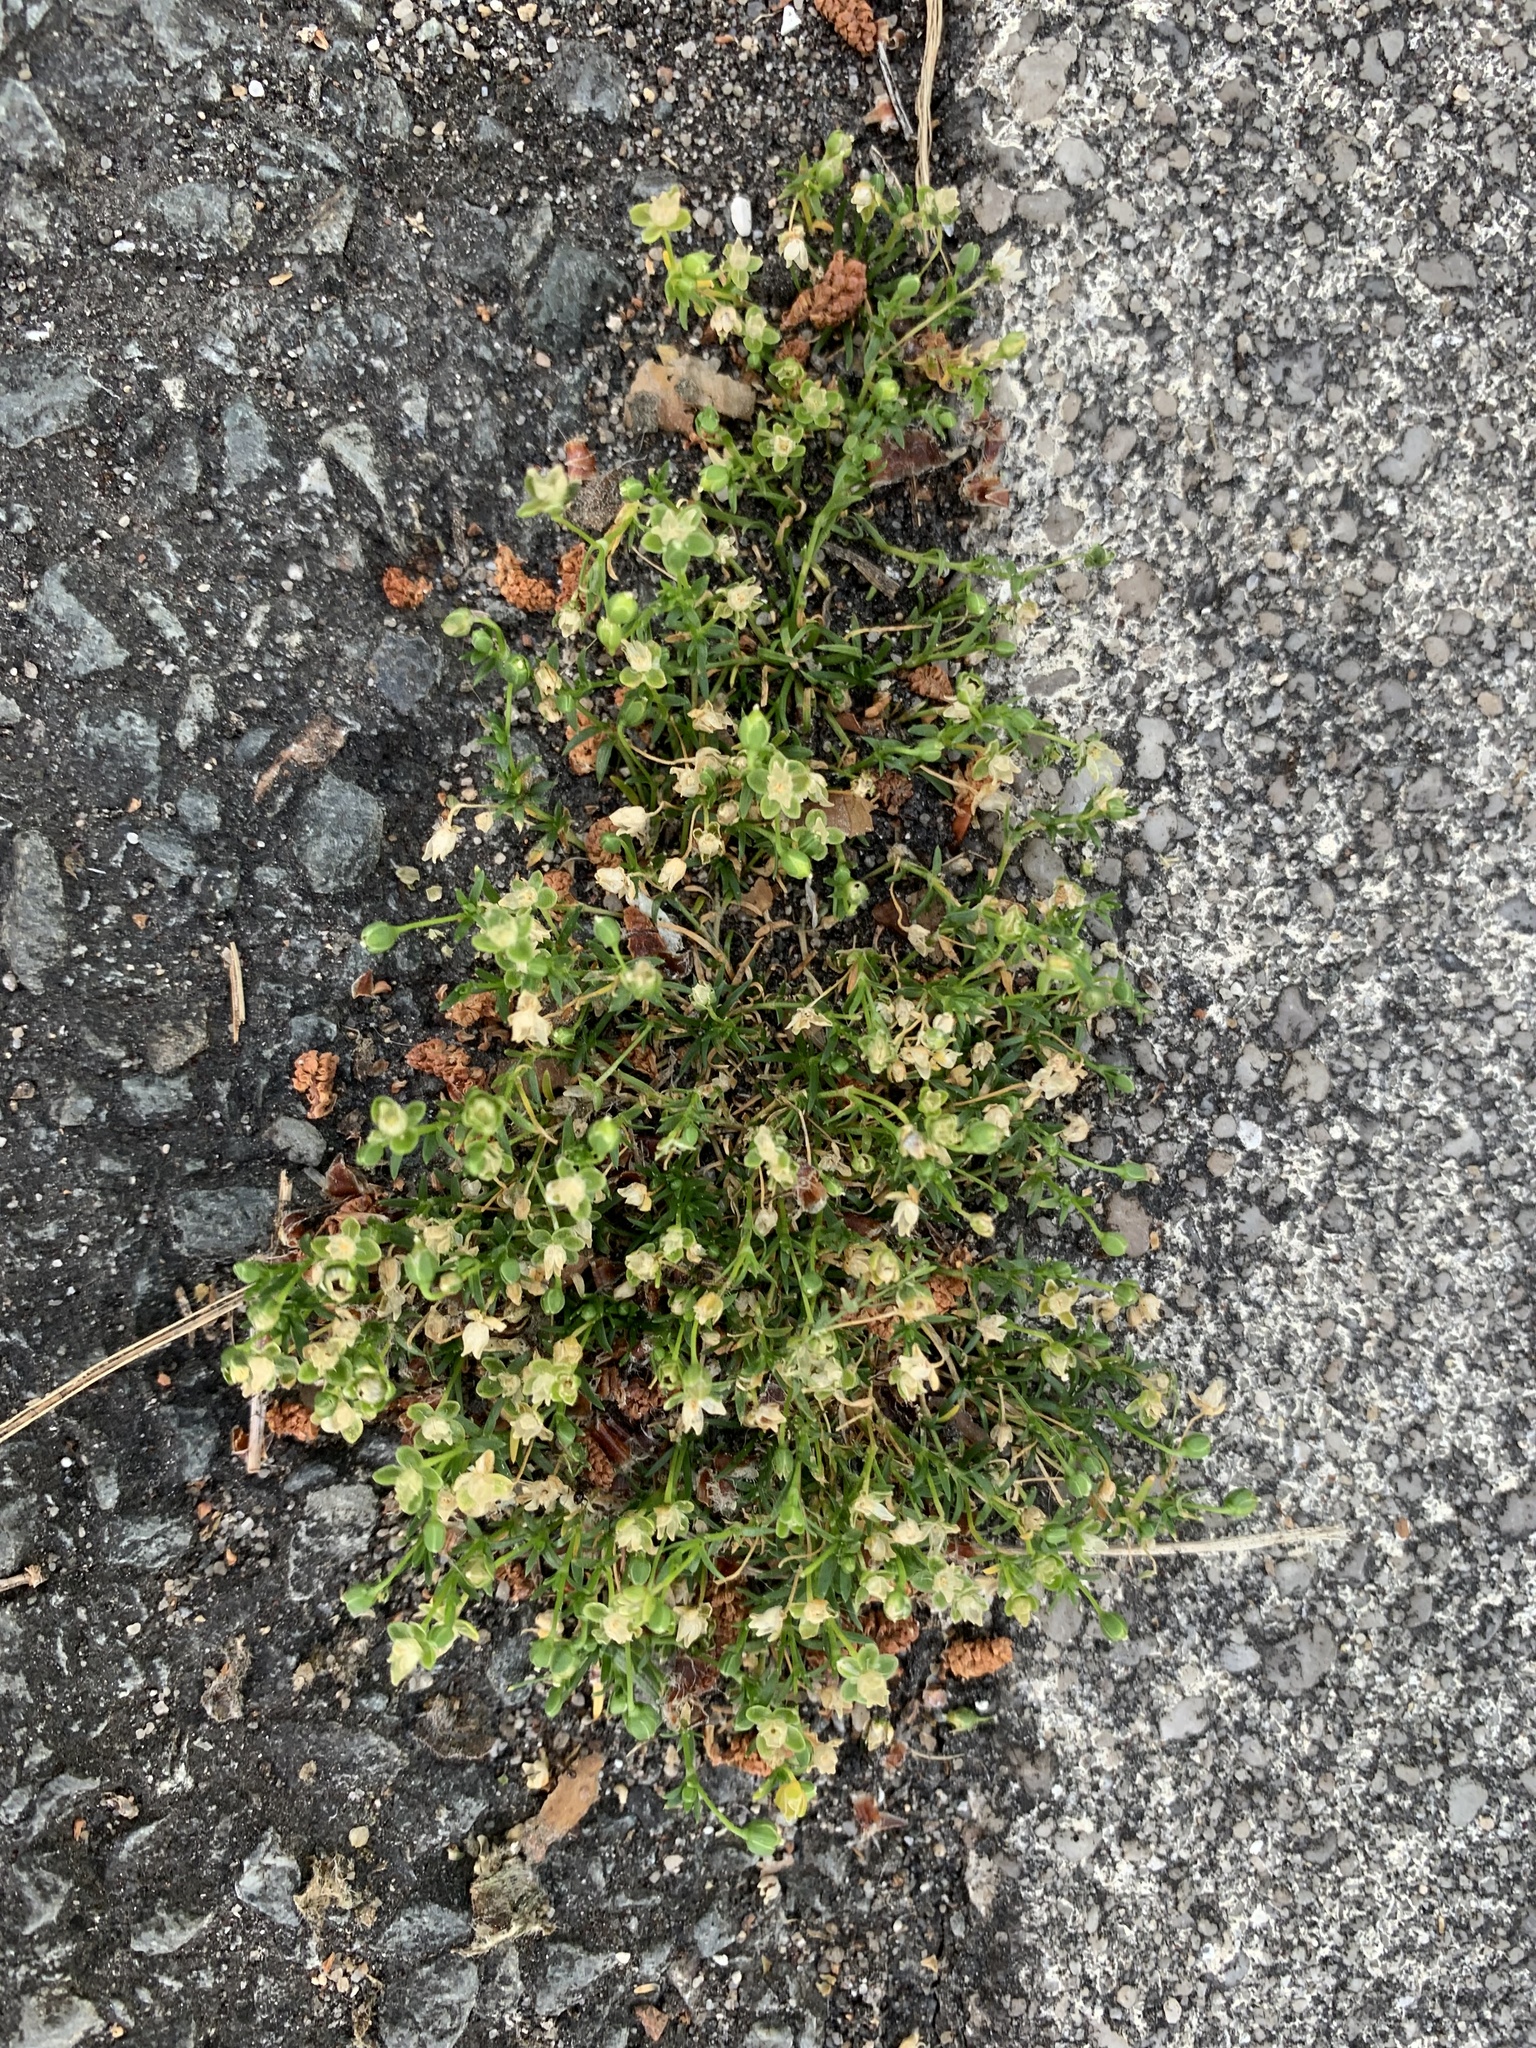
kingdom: Plantae
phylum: Tracheophyta
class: Magnoliopsida
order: Caryophyllales
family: Caryophyllaceae
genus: Sagina
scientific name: Sagina procumbens
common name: Procumbent pearlwort
